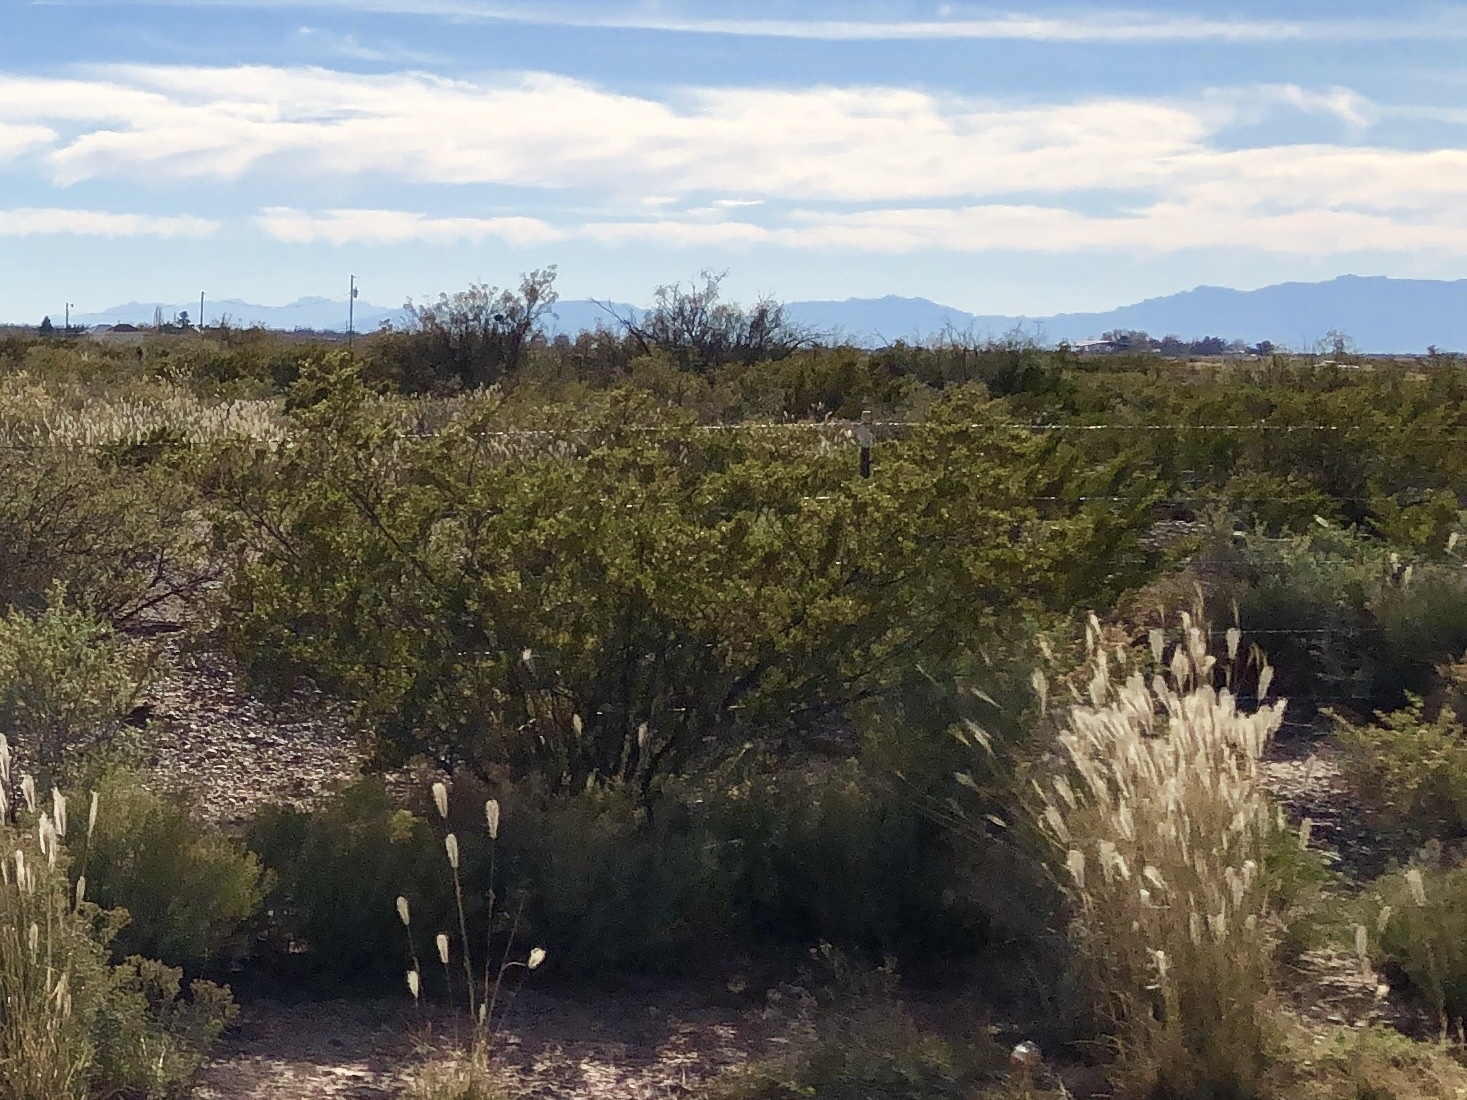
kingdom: Plantae
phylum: Tracheophyta
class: Magnoliopsida
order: Zygophyllales
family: Zygophyllaceae
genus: Larrea
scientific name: Larrea tridentata
